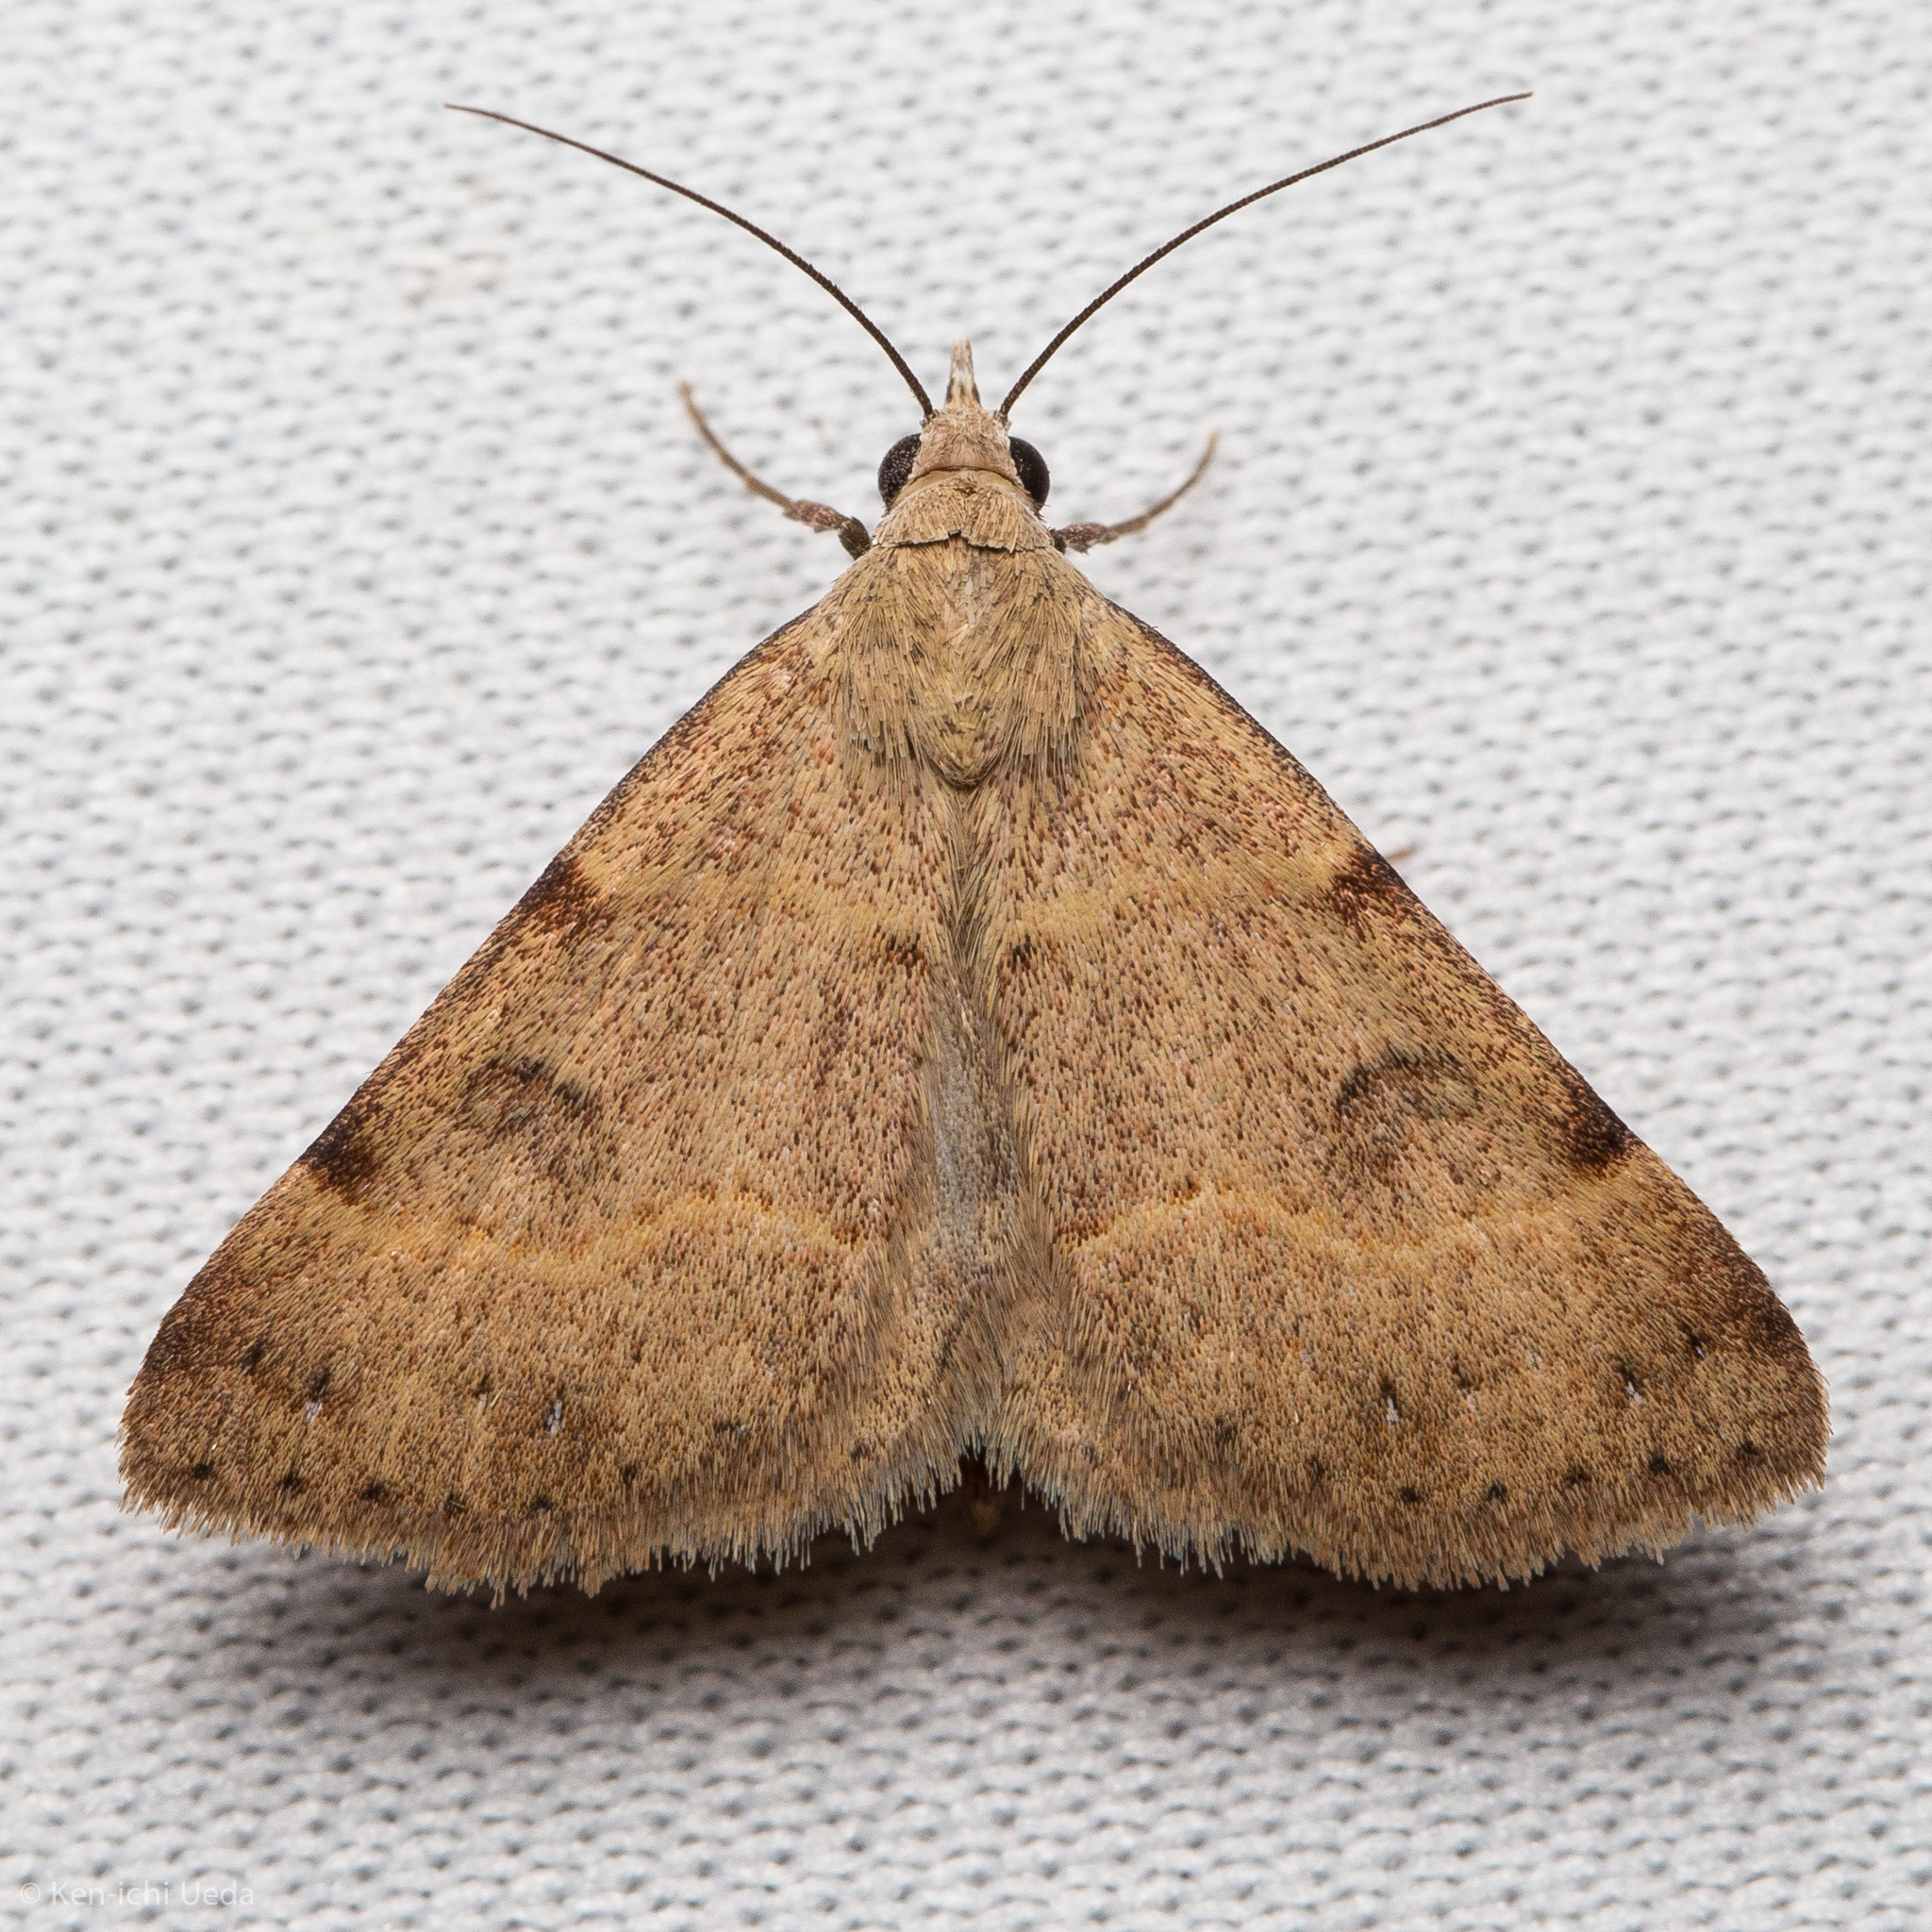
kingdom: Animalia
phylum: Arthropoda
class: Insecta
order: Lepidoptera
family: Erebidae
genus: Hemeroplanis
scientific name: Hemeroplanis historialis
